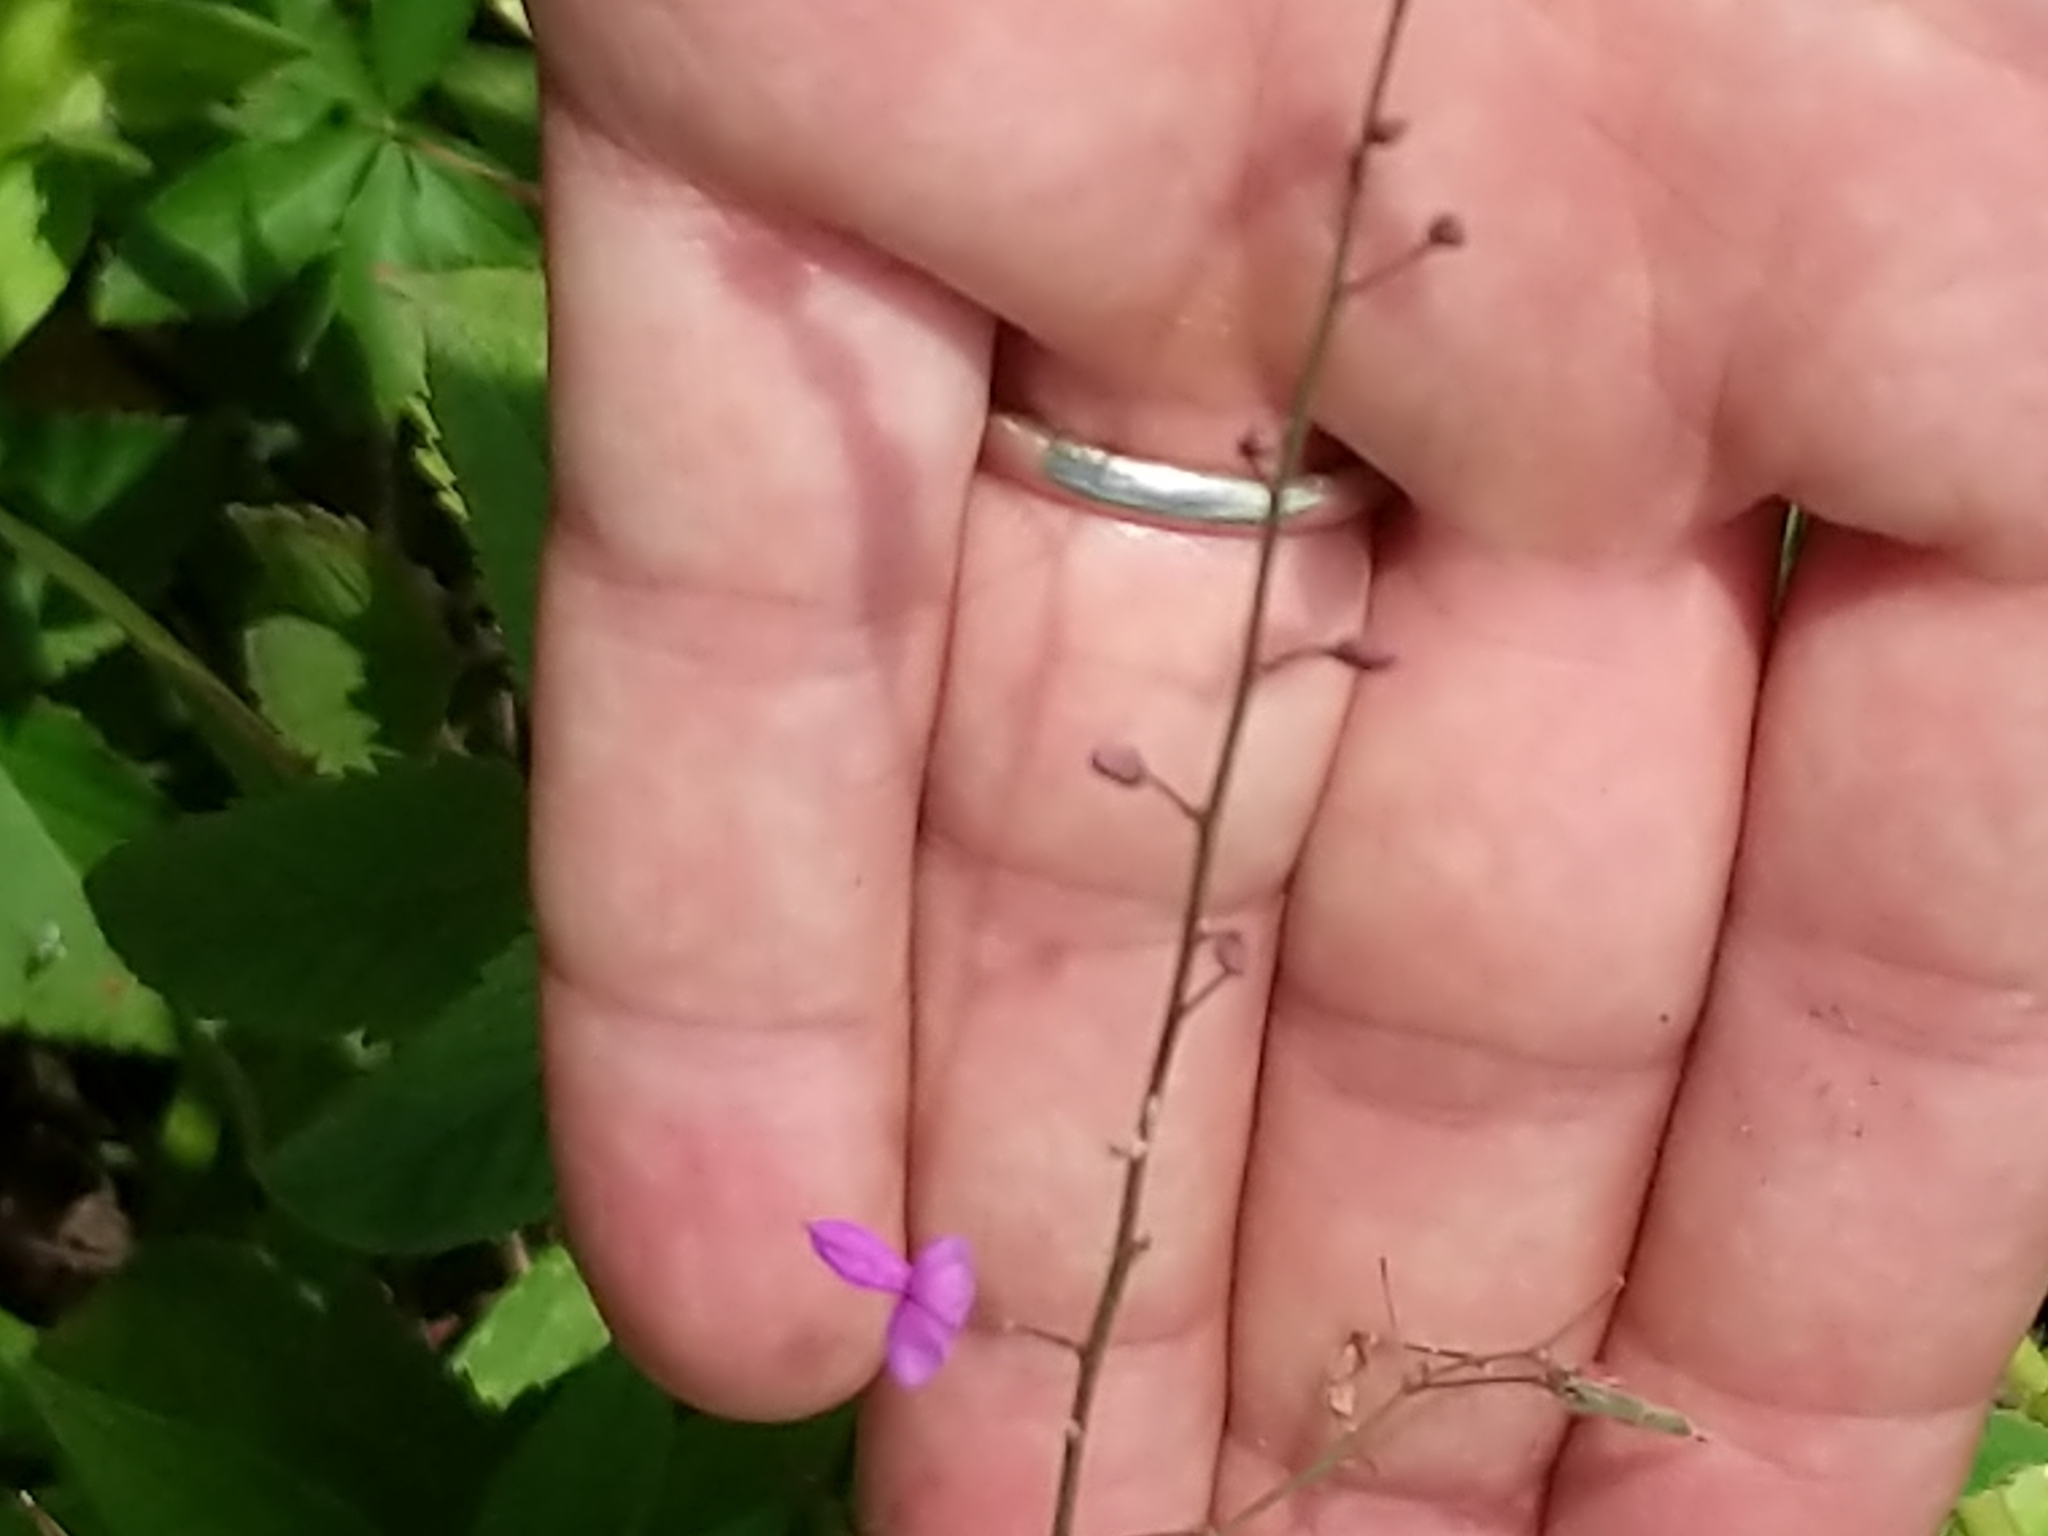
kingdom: Plantae
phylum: Tracheophyta
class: Magnoliopsida
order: Fabales
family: Fabaceae
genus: Desmodium
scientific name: Desmodium paniculatum
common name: Panicled tick-clover
